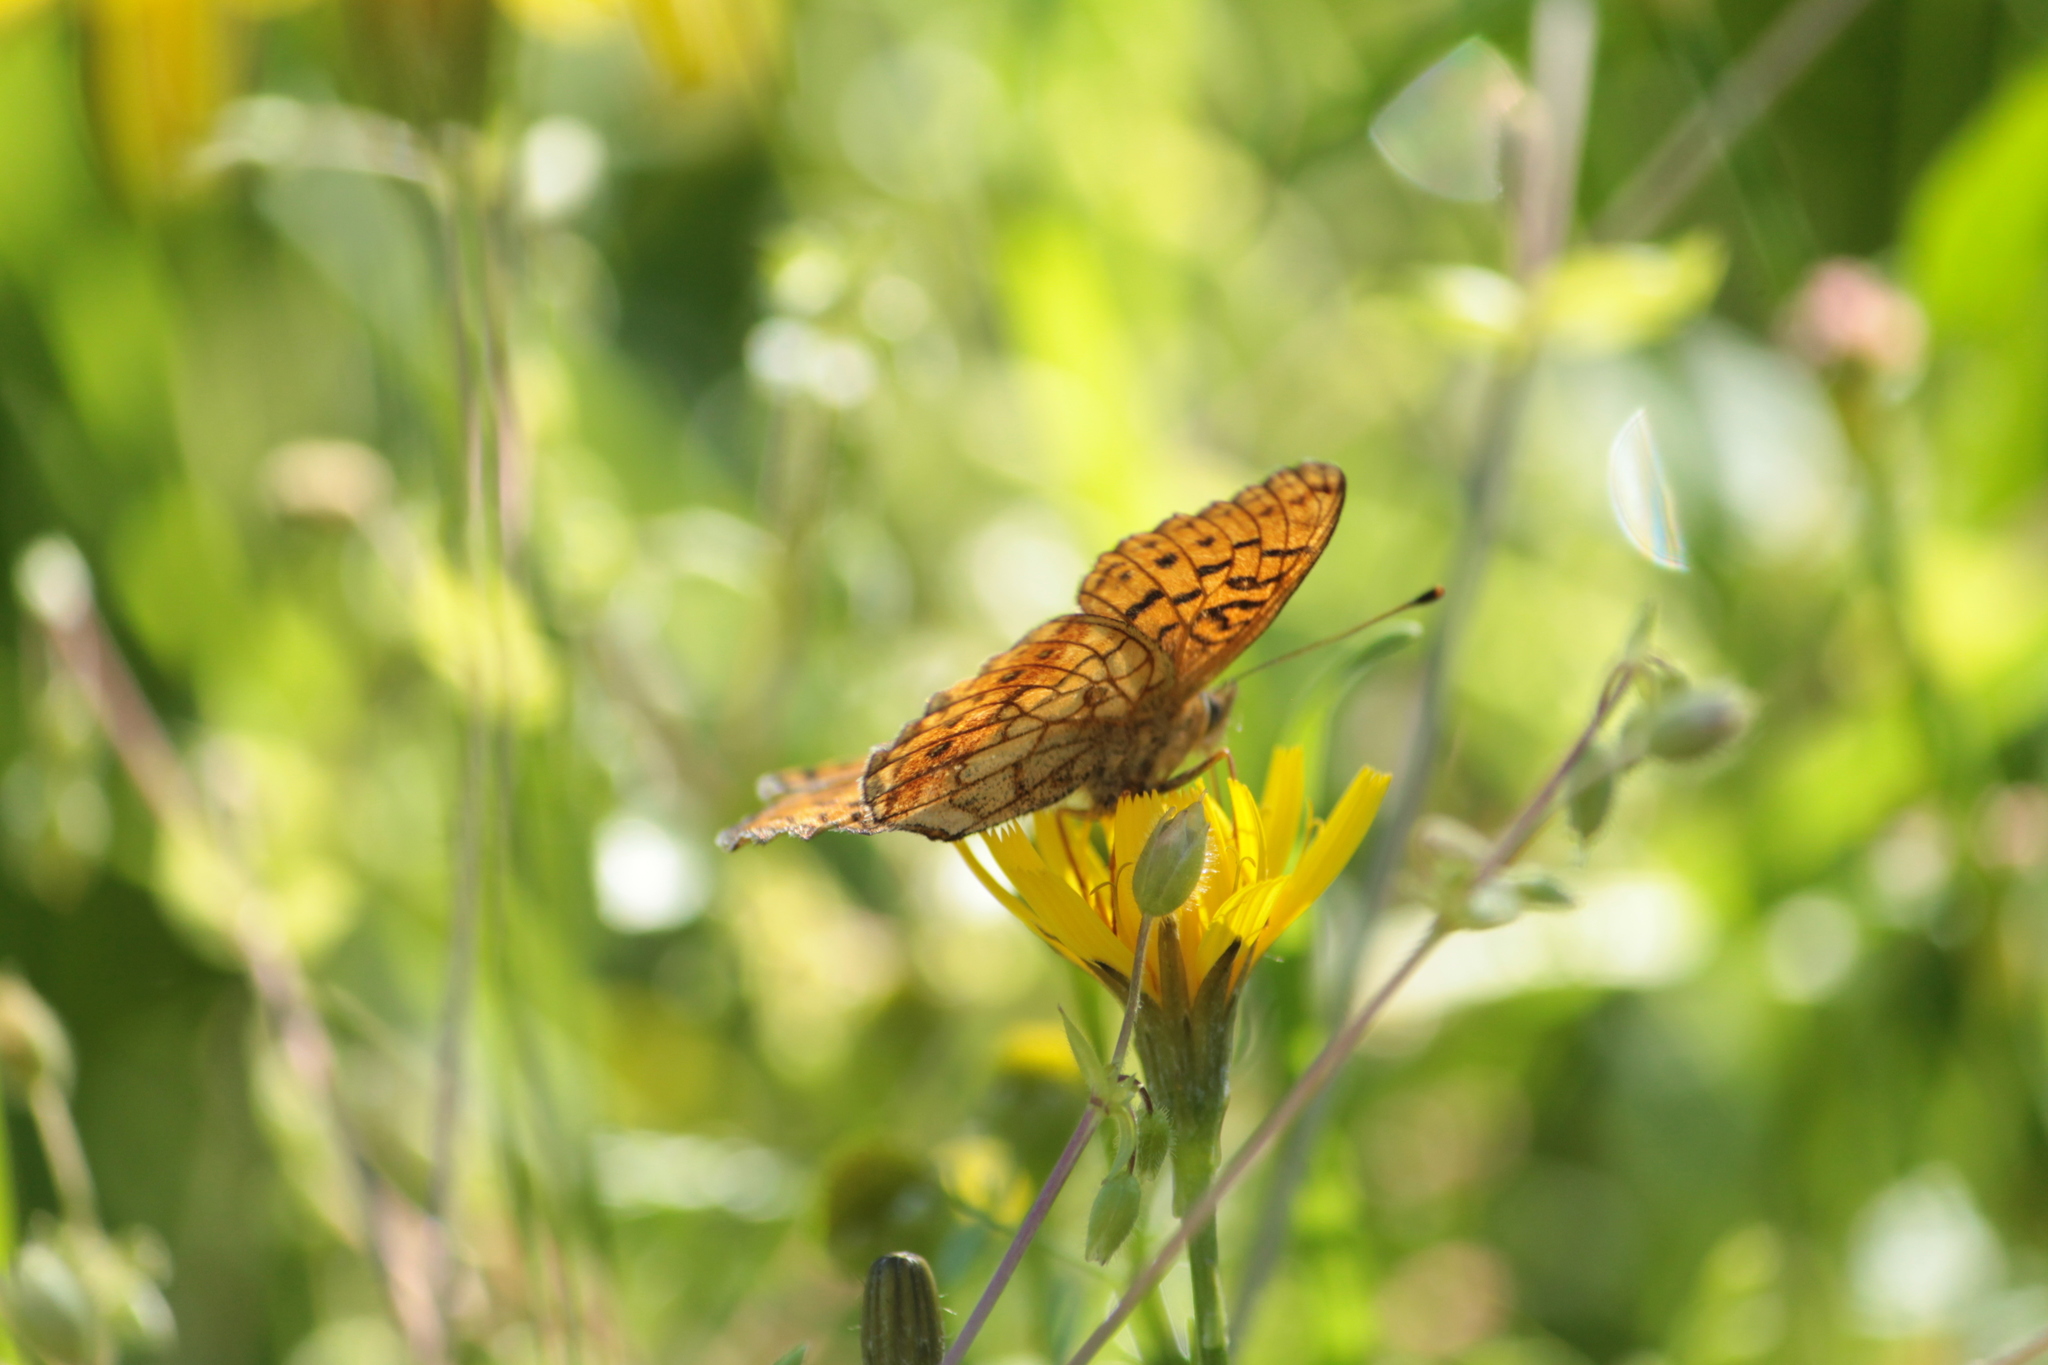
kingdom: Animalia
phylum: Arthropoda
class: Insecta
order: Lepidoptera
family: Nymphalidae
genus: Brenthis
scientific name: Brenthis ino
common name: Lesser marbled fritillary
